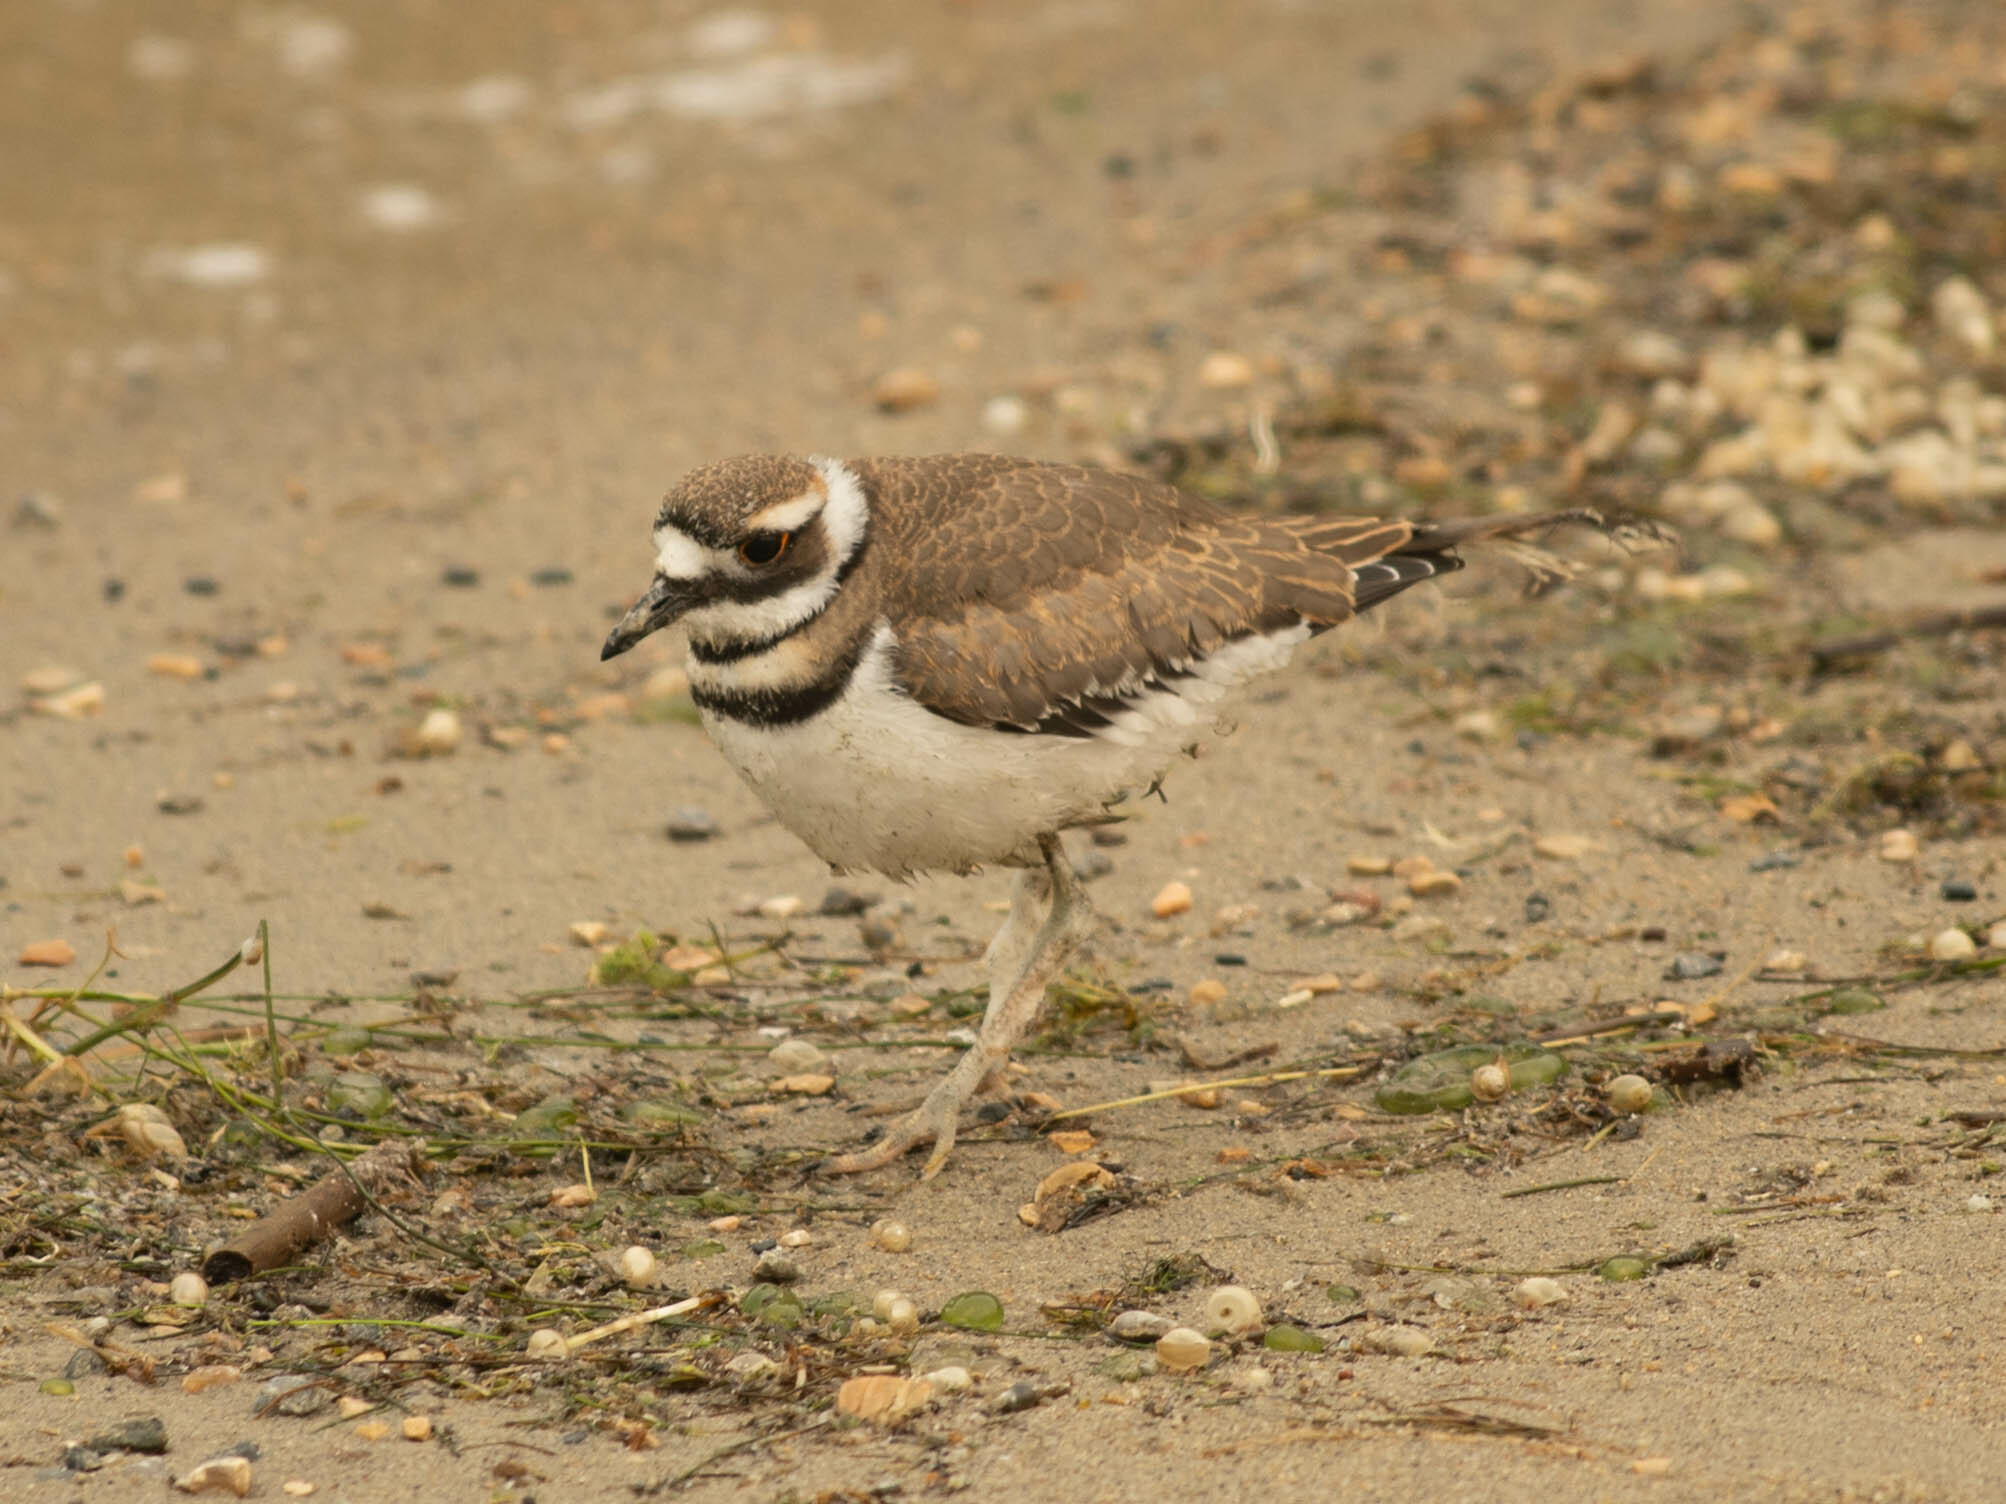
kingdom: Animalia
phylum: Chordata
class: Aves
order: Charadriiformes
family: Charadriidae
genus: Charadrius
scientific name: Charadrius vociferus
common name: Killdeer
